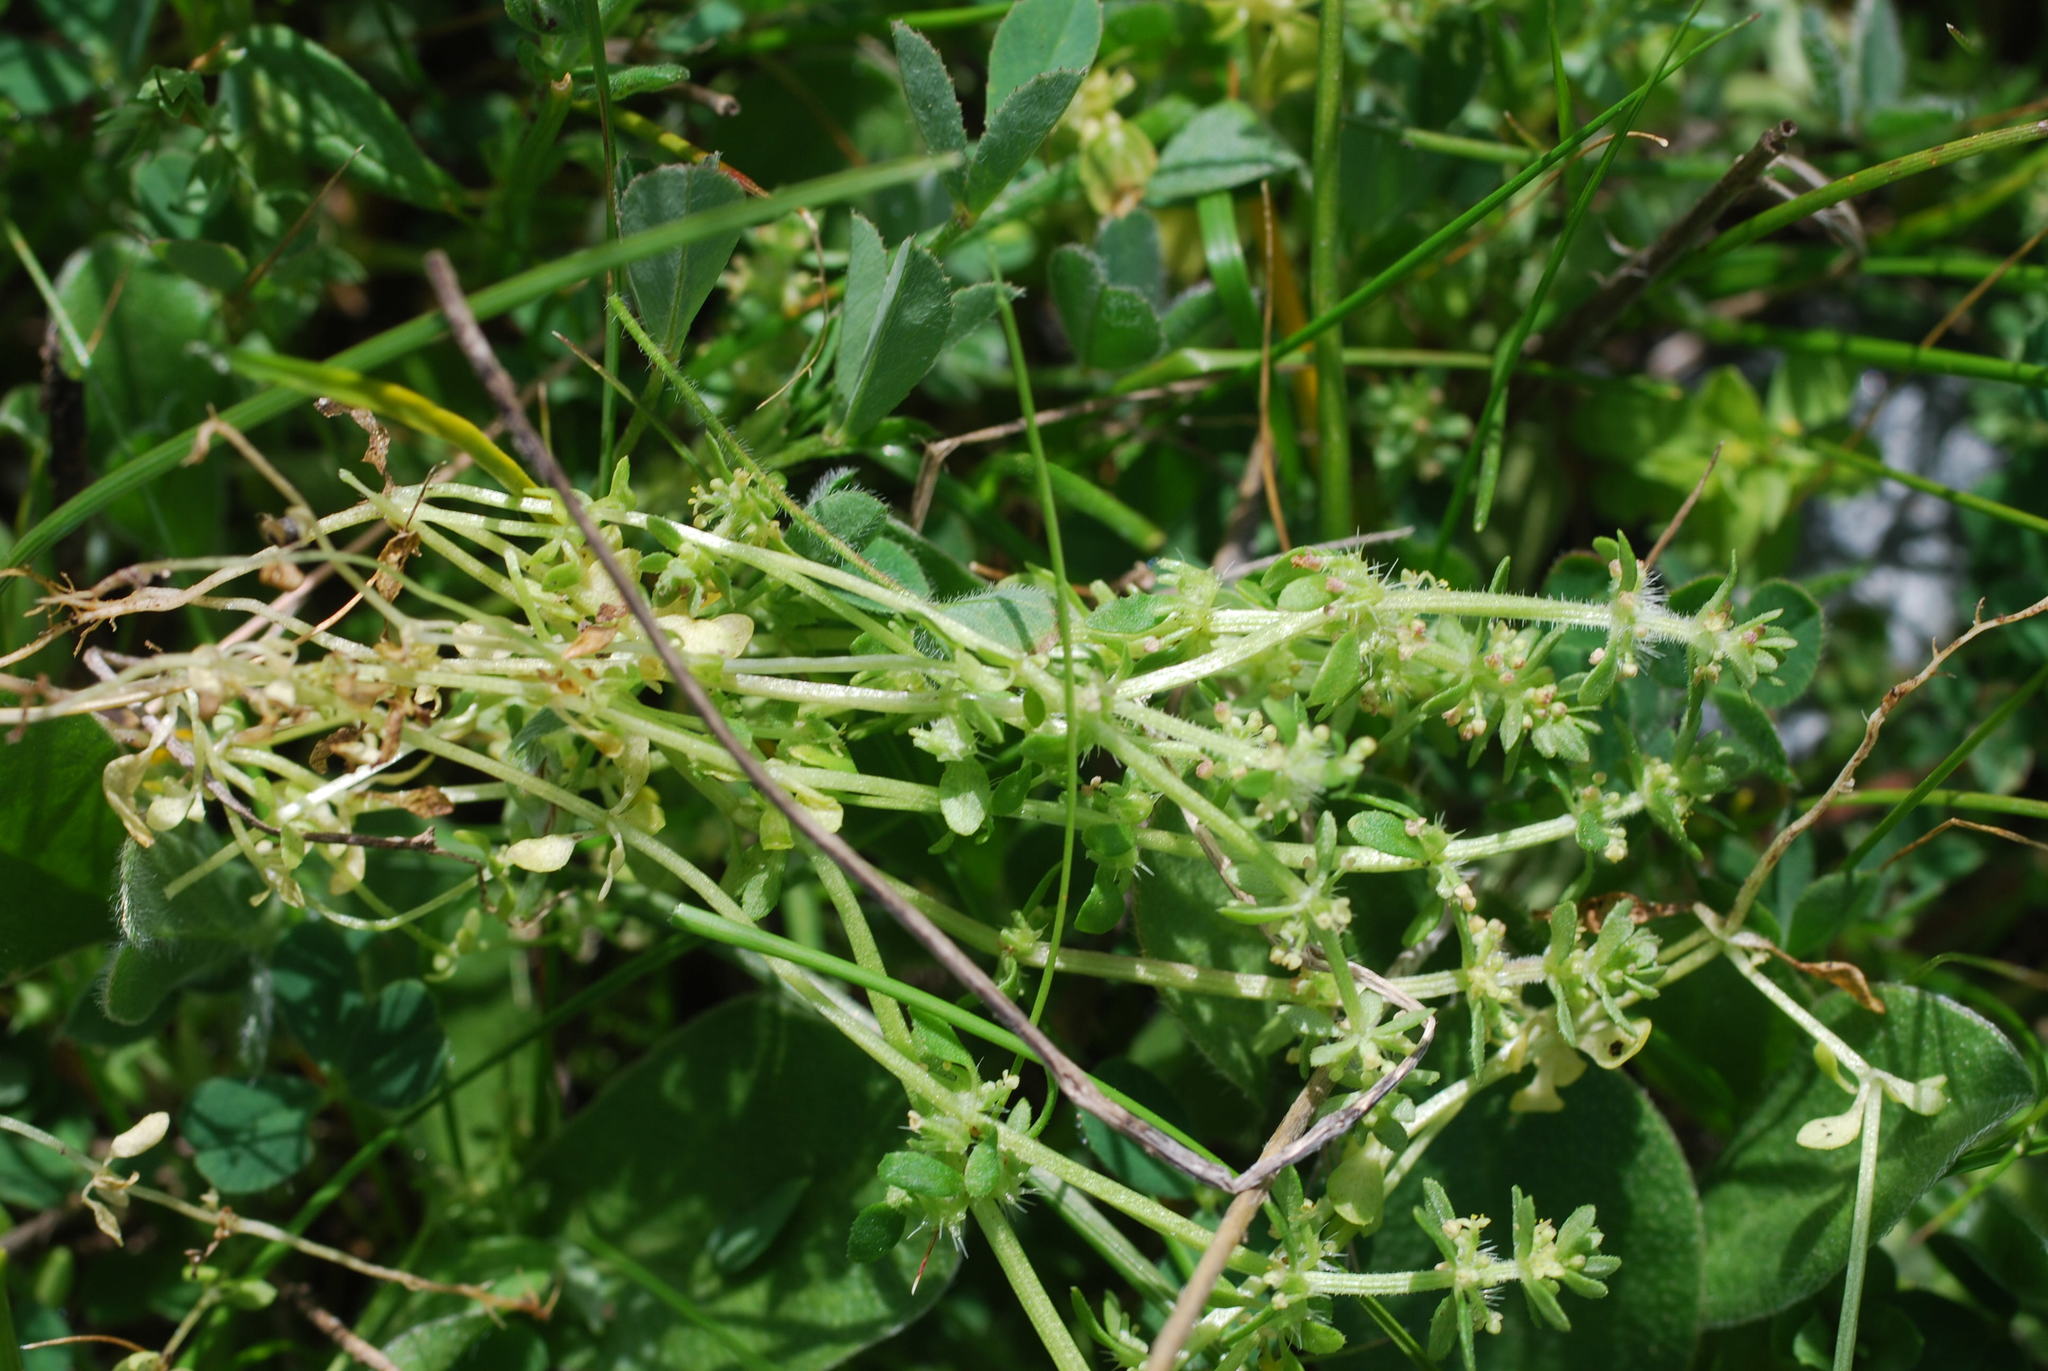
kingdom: Plantae
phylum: Tracheophyta
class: Magnoliopsida
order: Gentianales
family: Rubiaceae
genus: Valantia
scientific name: Valantia hispida
